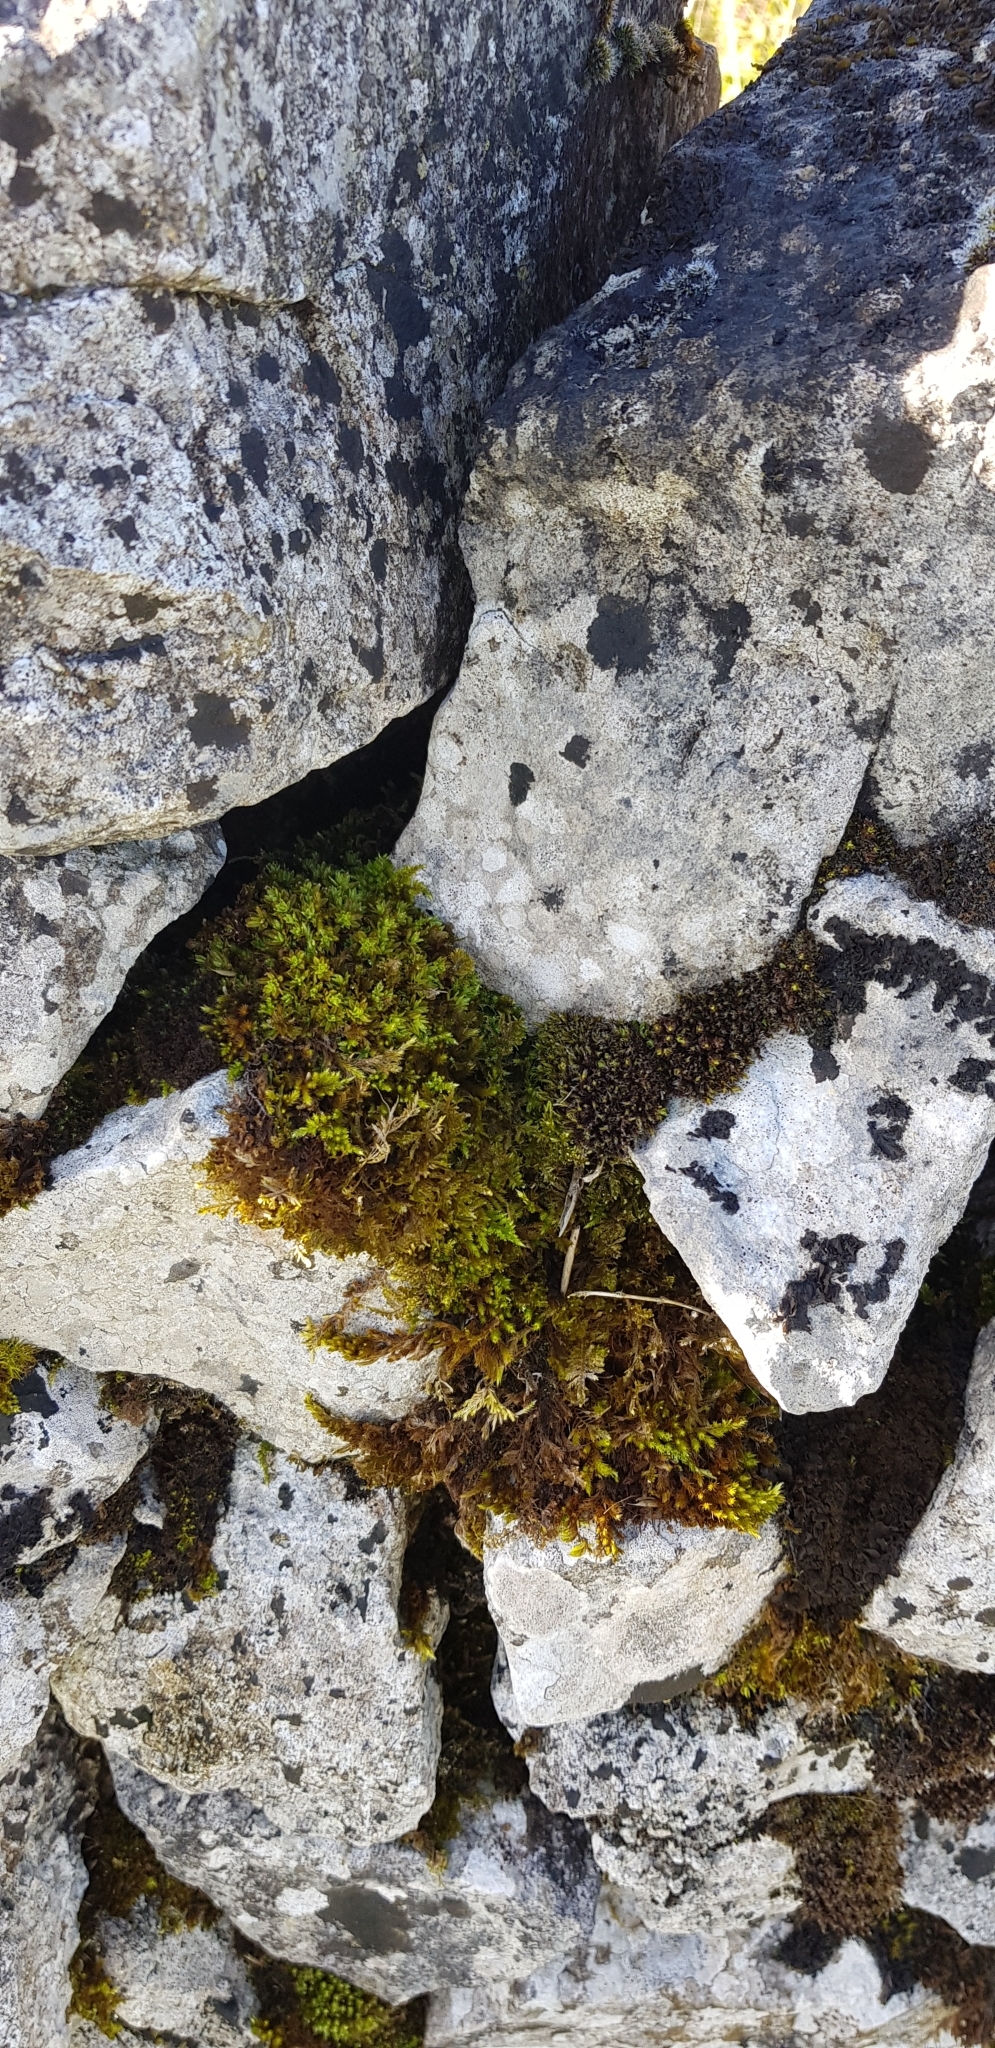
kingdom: Plantae
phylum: Bryophyta
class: Bryopsida
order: Encalyptales
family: Encalyptaceae
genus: Encalypta
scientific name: Encalypta streptocarpa
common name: Spiral extinguisher-moss
